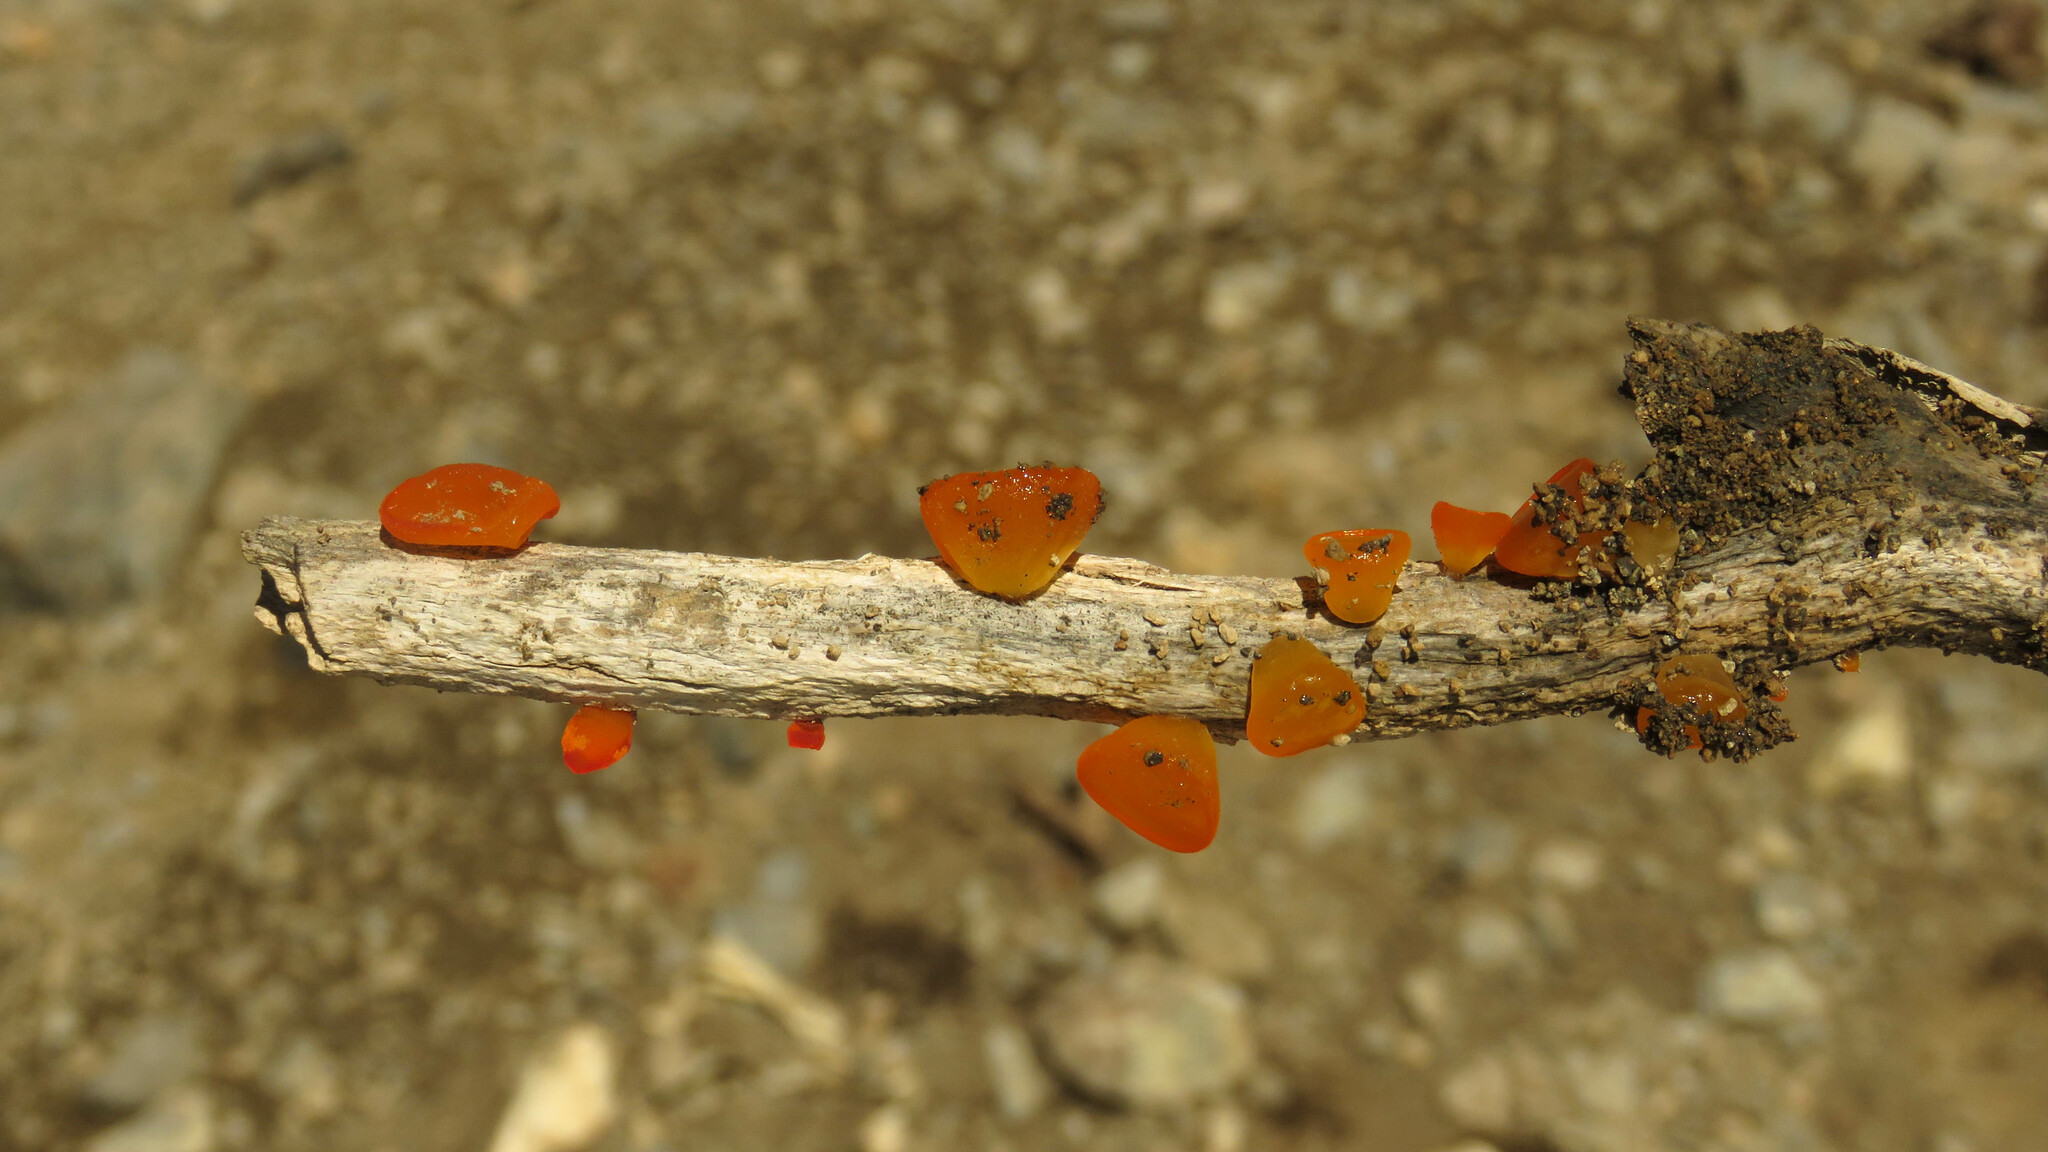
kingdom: Fungi
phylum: Basidiomycota
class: Dacrymycetes
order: Dacrymycetales
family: Dacrymycetaceae
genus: Guepiniopsis
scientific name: Guepiniopsis alpina
